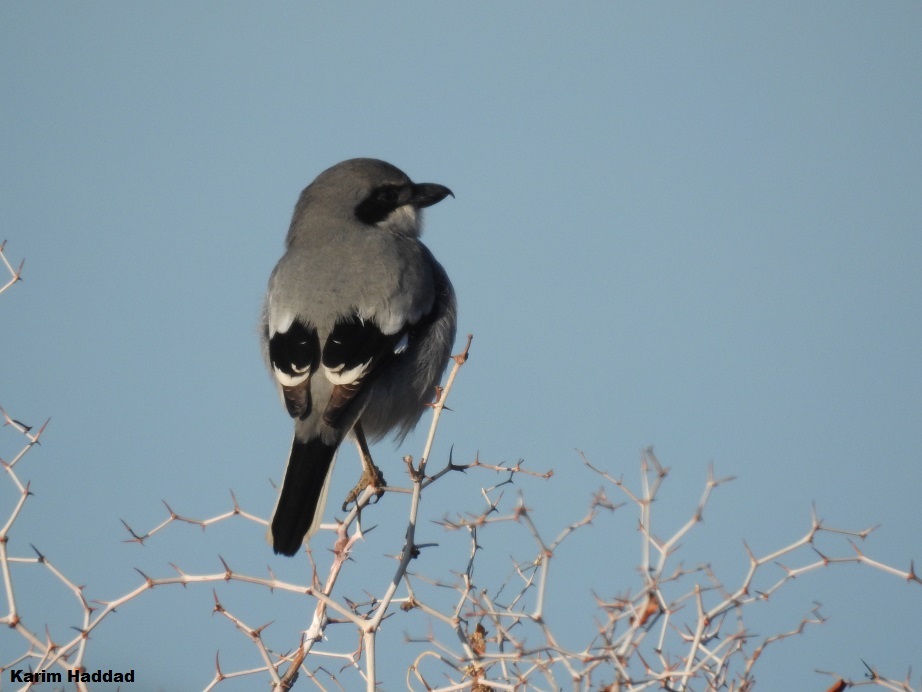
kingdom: Animalia
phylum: Chordata
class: Aves
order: Passeriformes
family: Laniidae
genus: Lanius
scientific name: Lanius excubitor
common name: Great grey shrike
